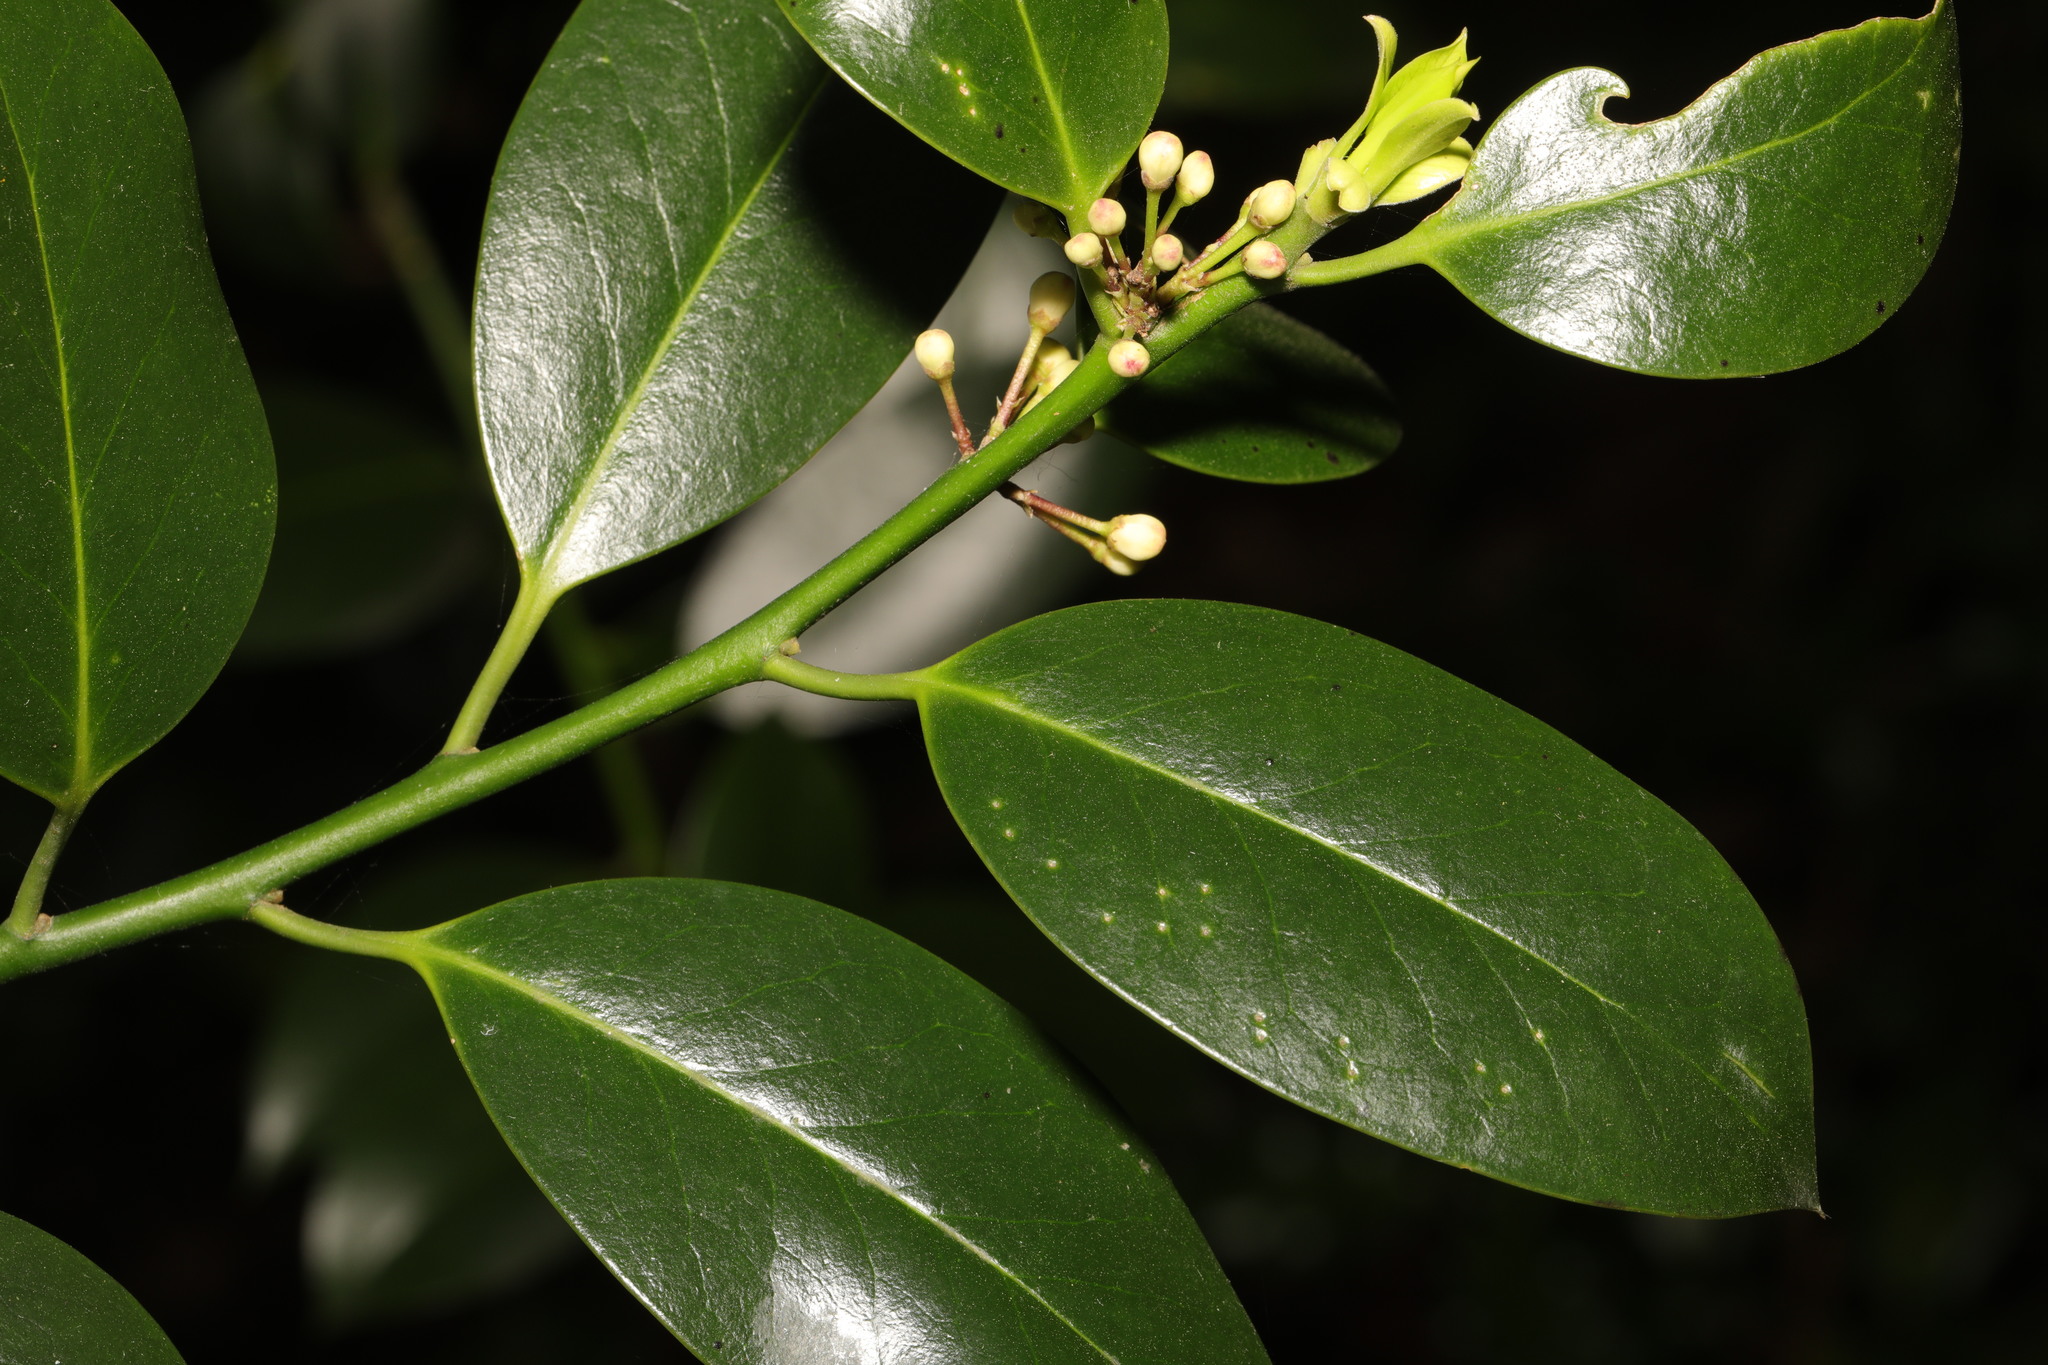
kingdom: Plantae
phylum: Tracheophyta
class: Magnoliopsida
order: Aquifoliales
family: Aquifoliaceae
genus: Ilex
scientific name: Ilex altaclerensis
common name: Highclere holly
